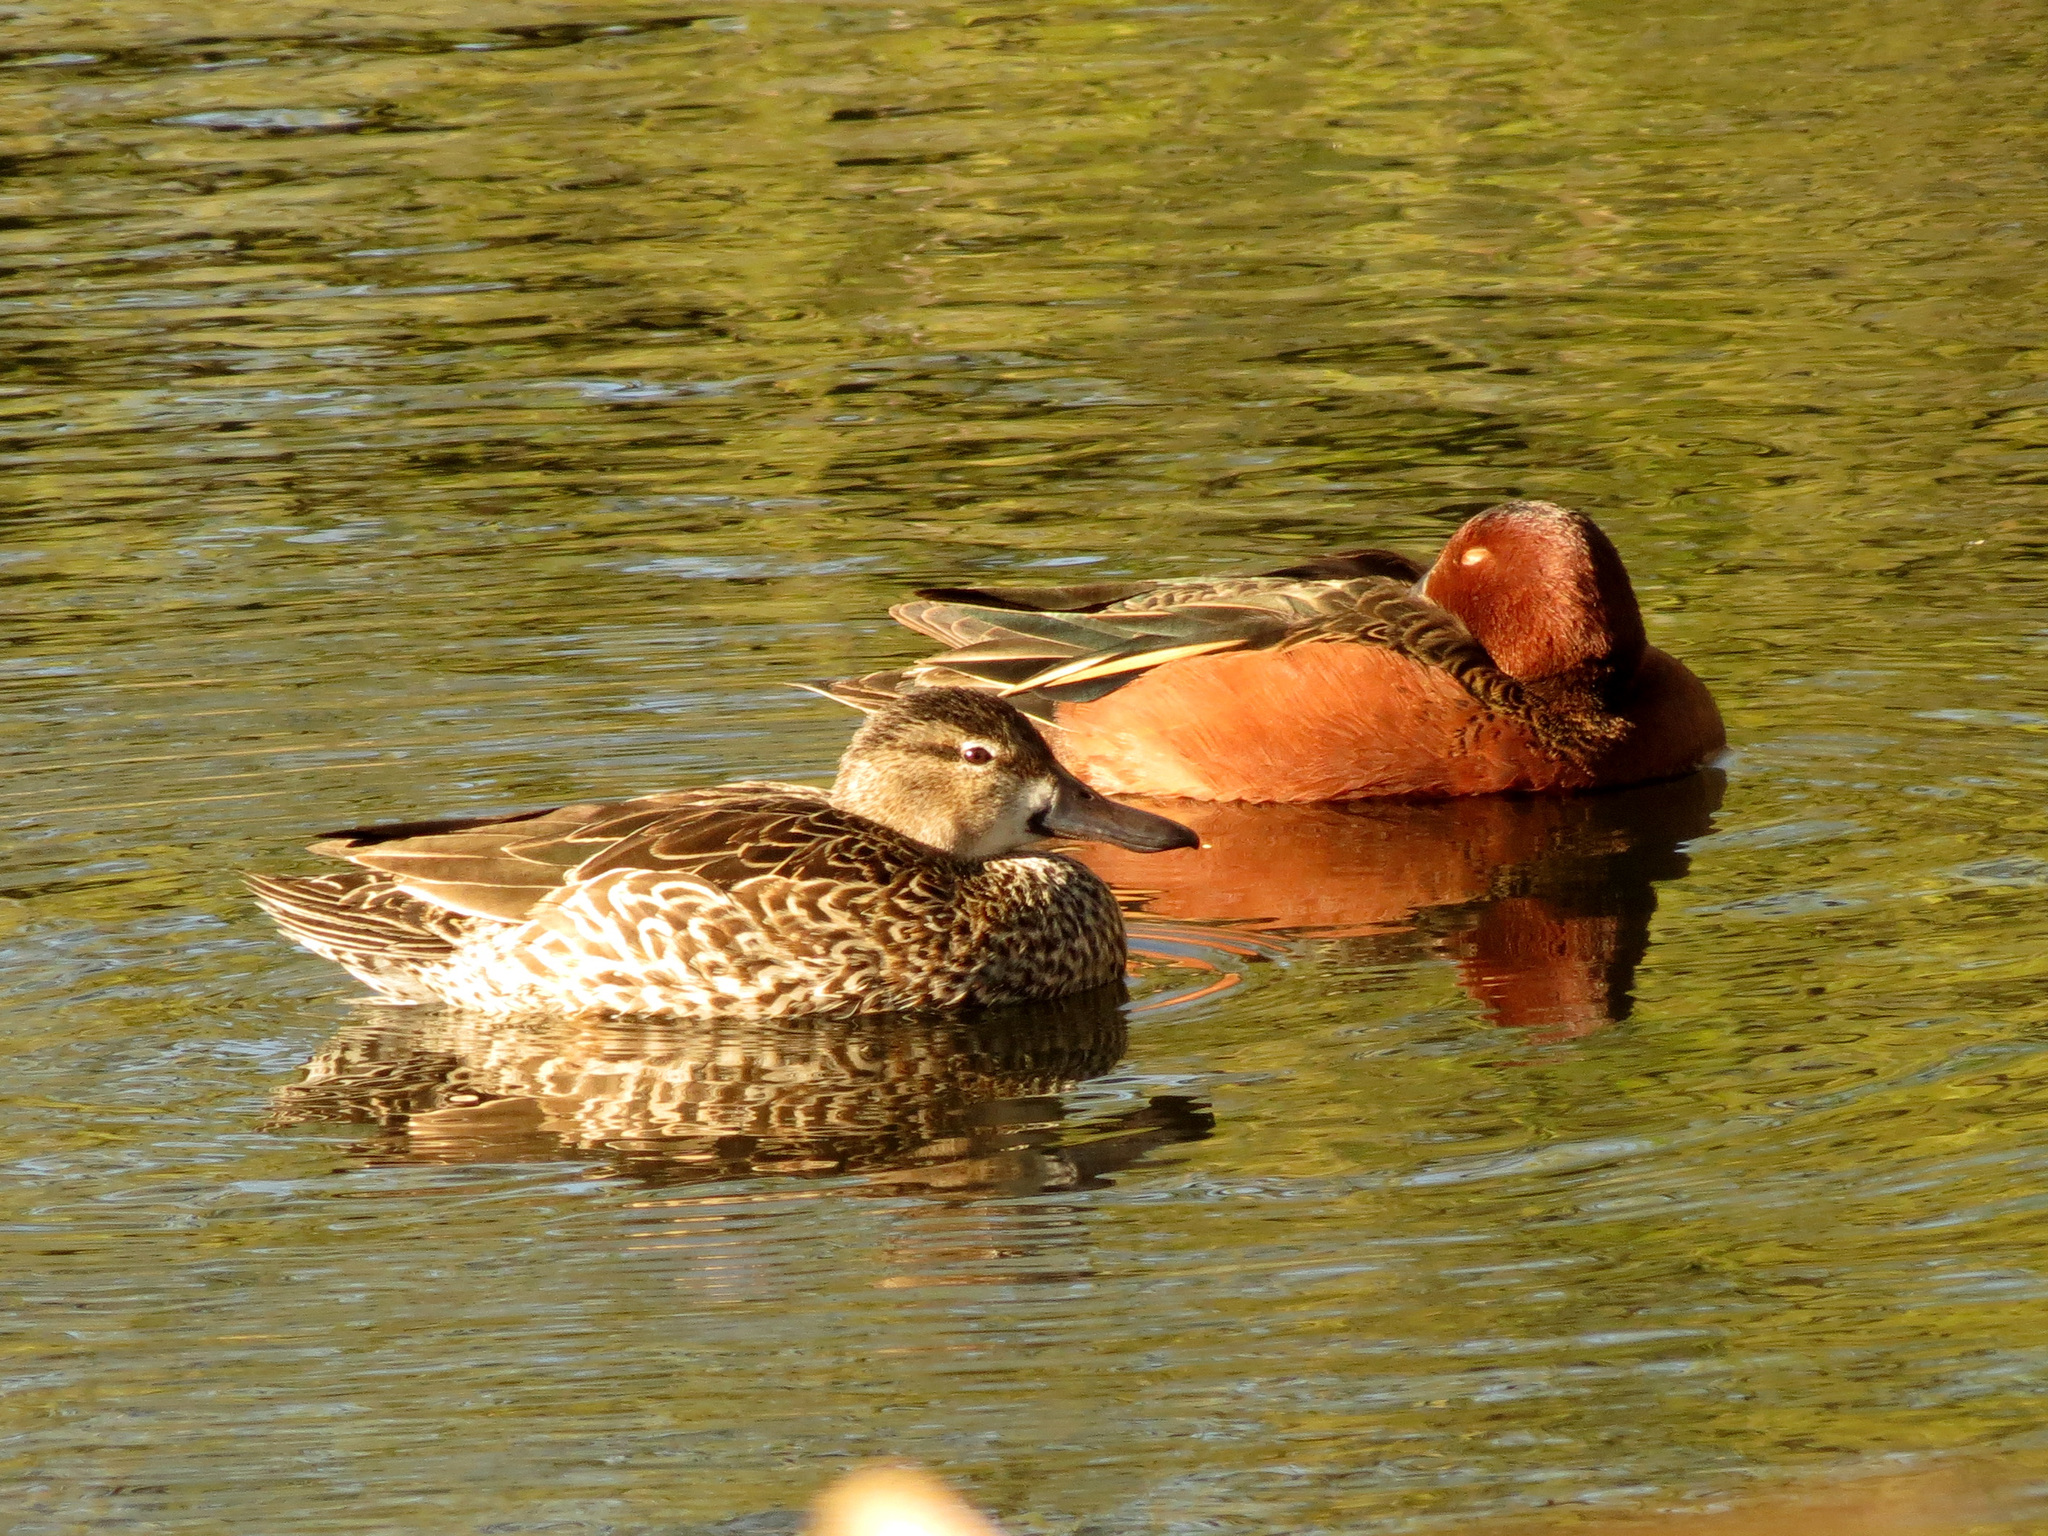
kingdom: Animalia
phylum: Chordata
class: Aves
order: Anseriformes
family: Anatidae
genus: Spatula
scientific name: Spatula cyanoptera
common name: Cinnamon teal
